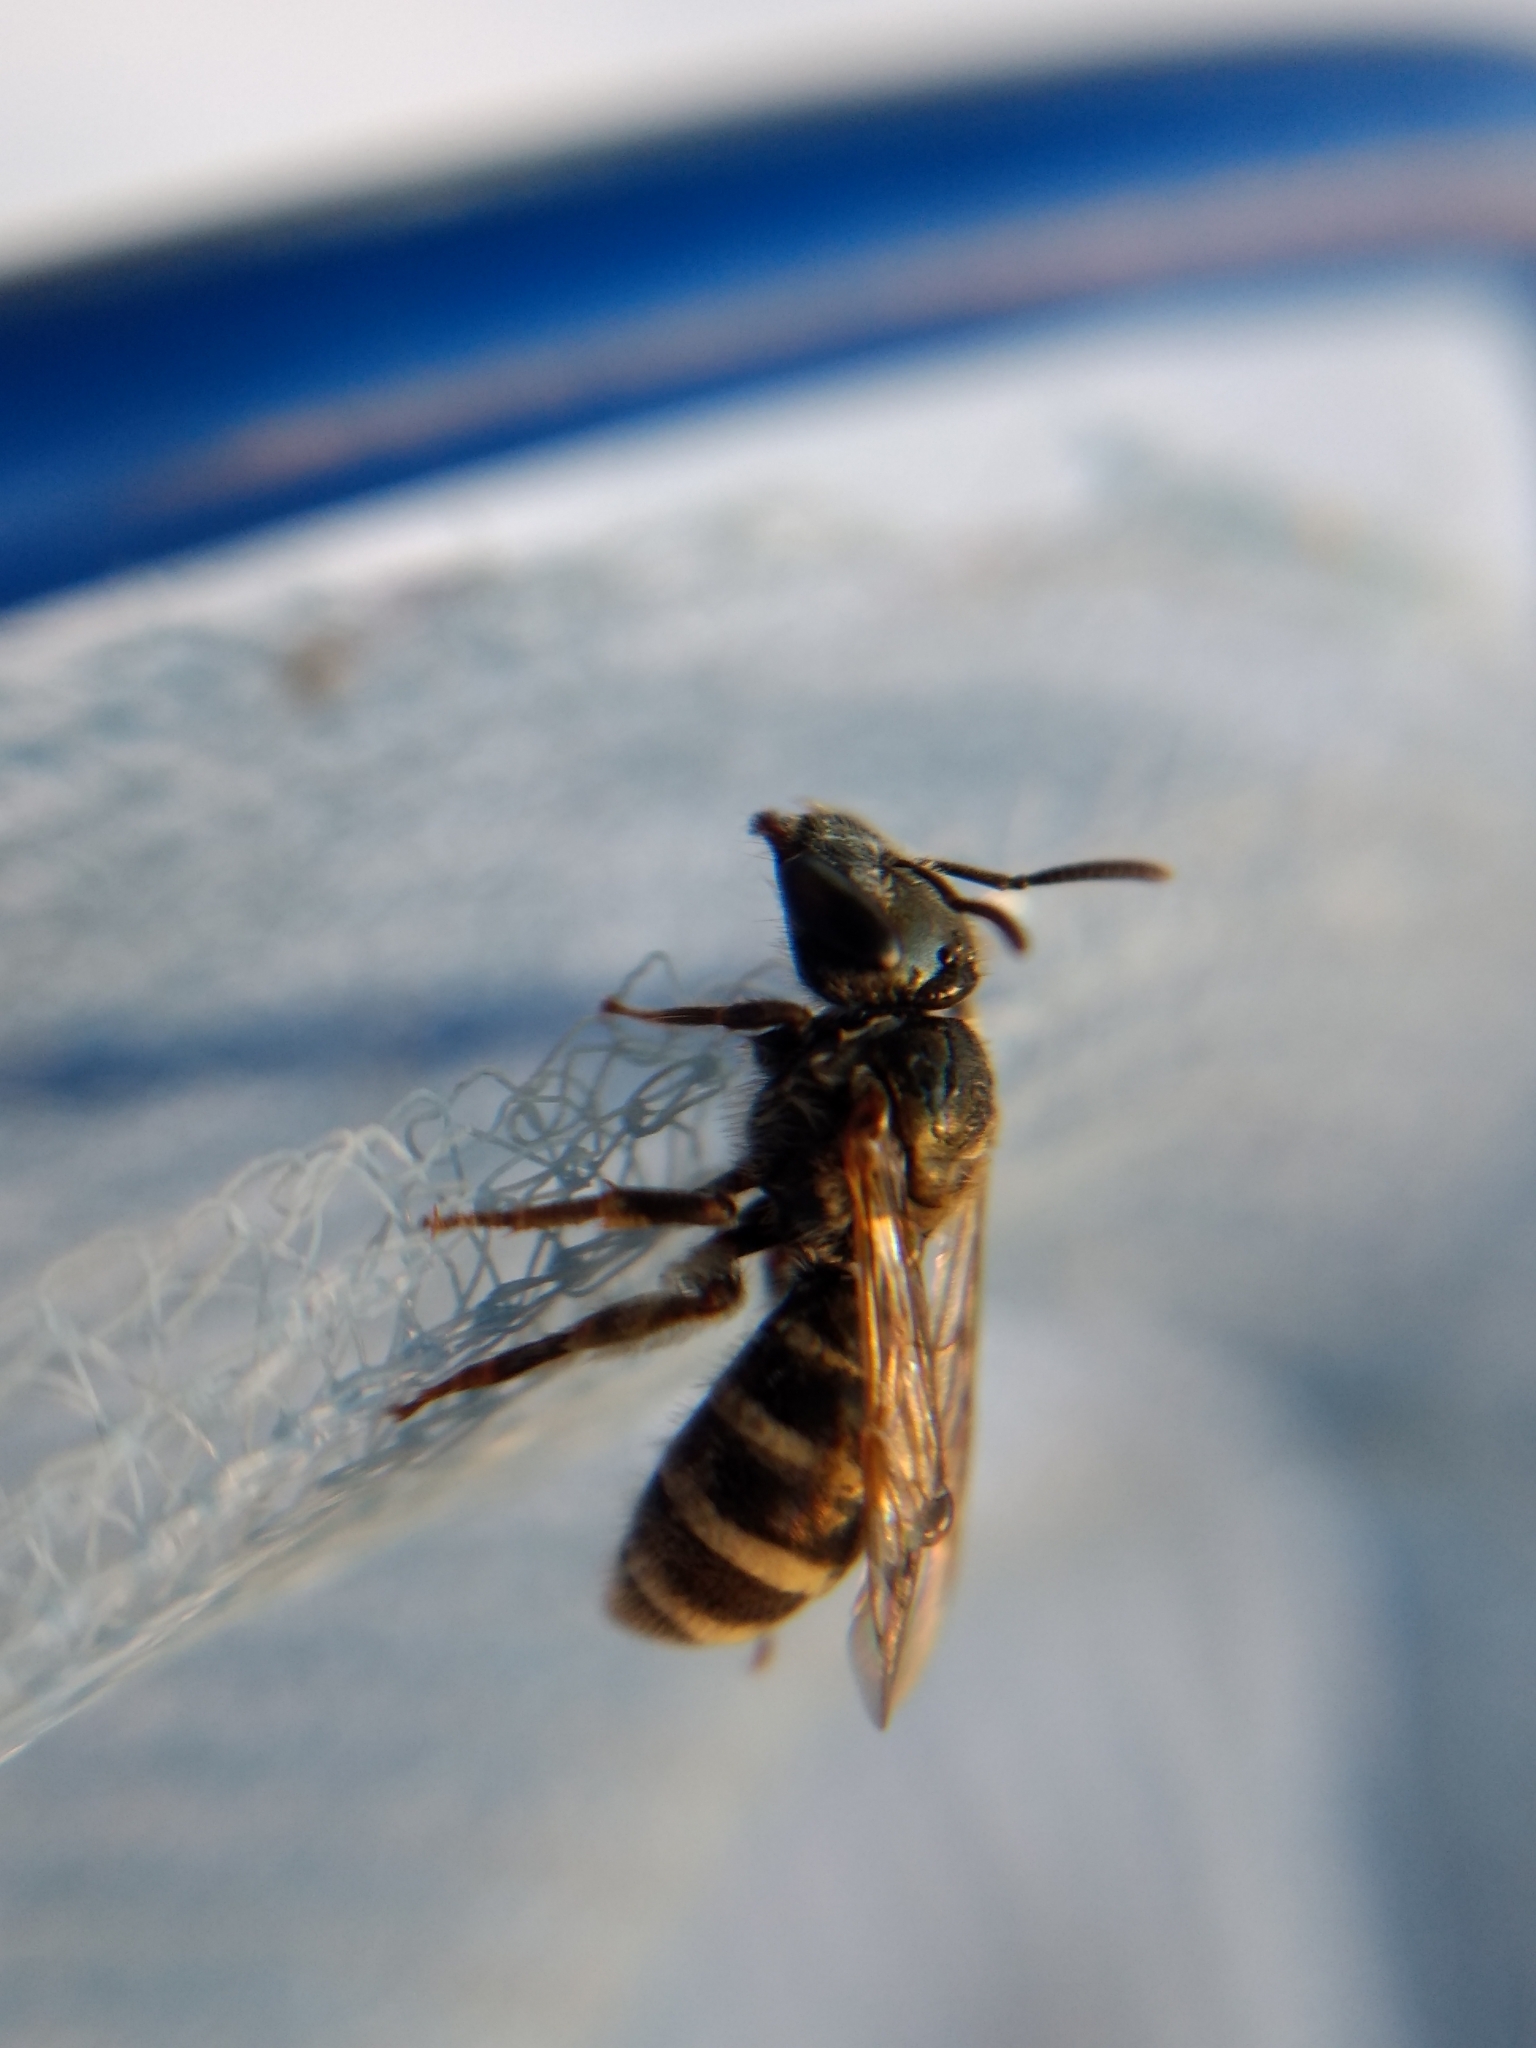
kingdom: Animalia
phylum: Arthropoda
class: Insecta
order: Hymenoptera
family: Halictidae
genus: Halictus
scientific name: Halictus tripartitus
